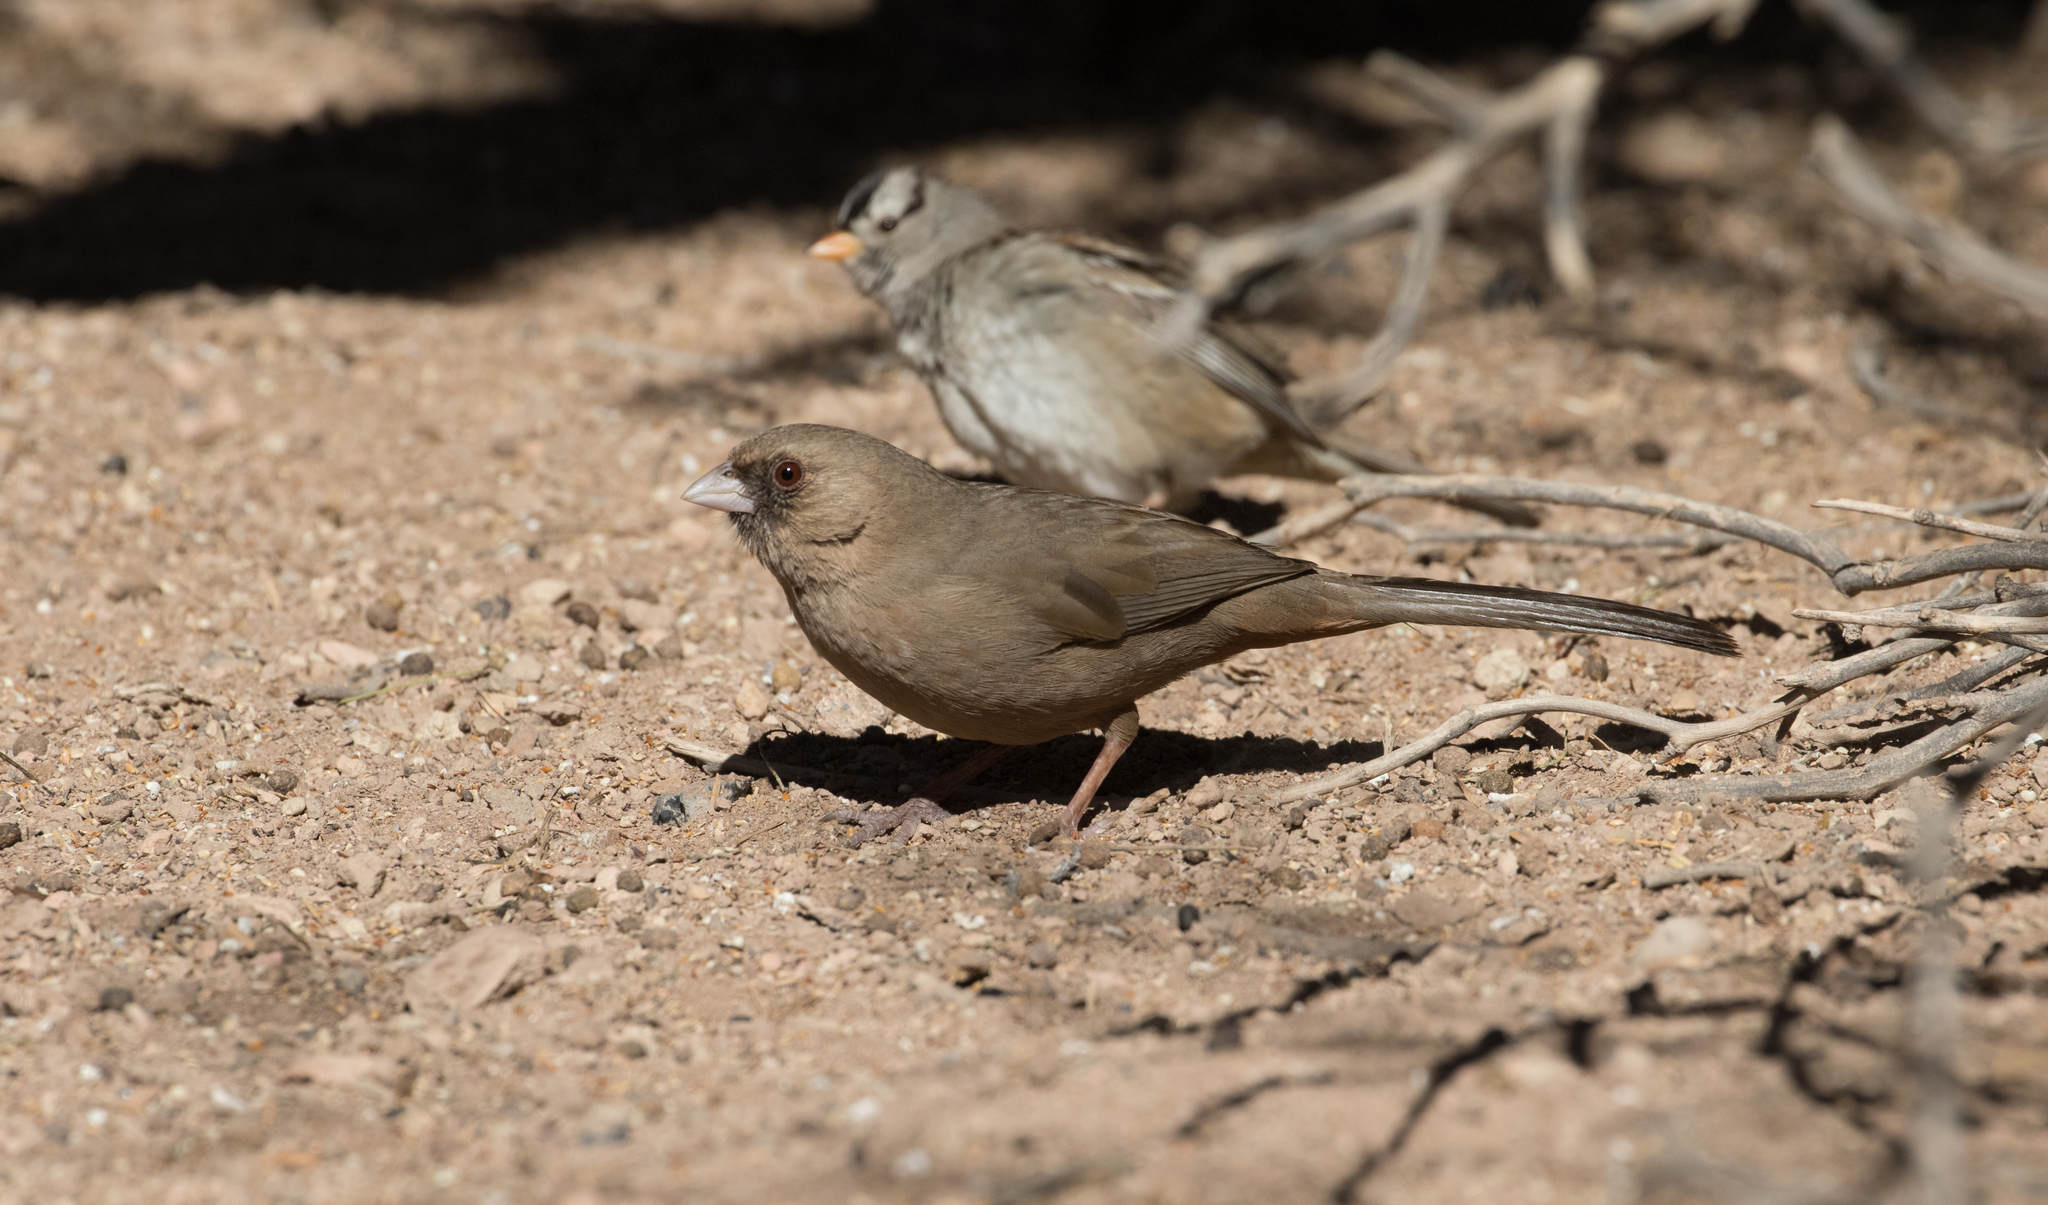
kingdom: Animalia
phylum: Chordata
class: Aves
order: Passeriformes
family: Passerellidae
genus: Melozone
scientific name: Melozone aberti
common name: Abert's towhee
